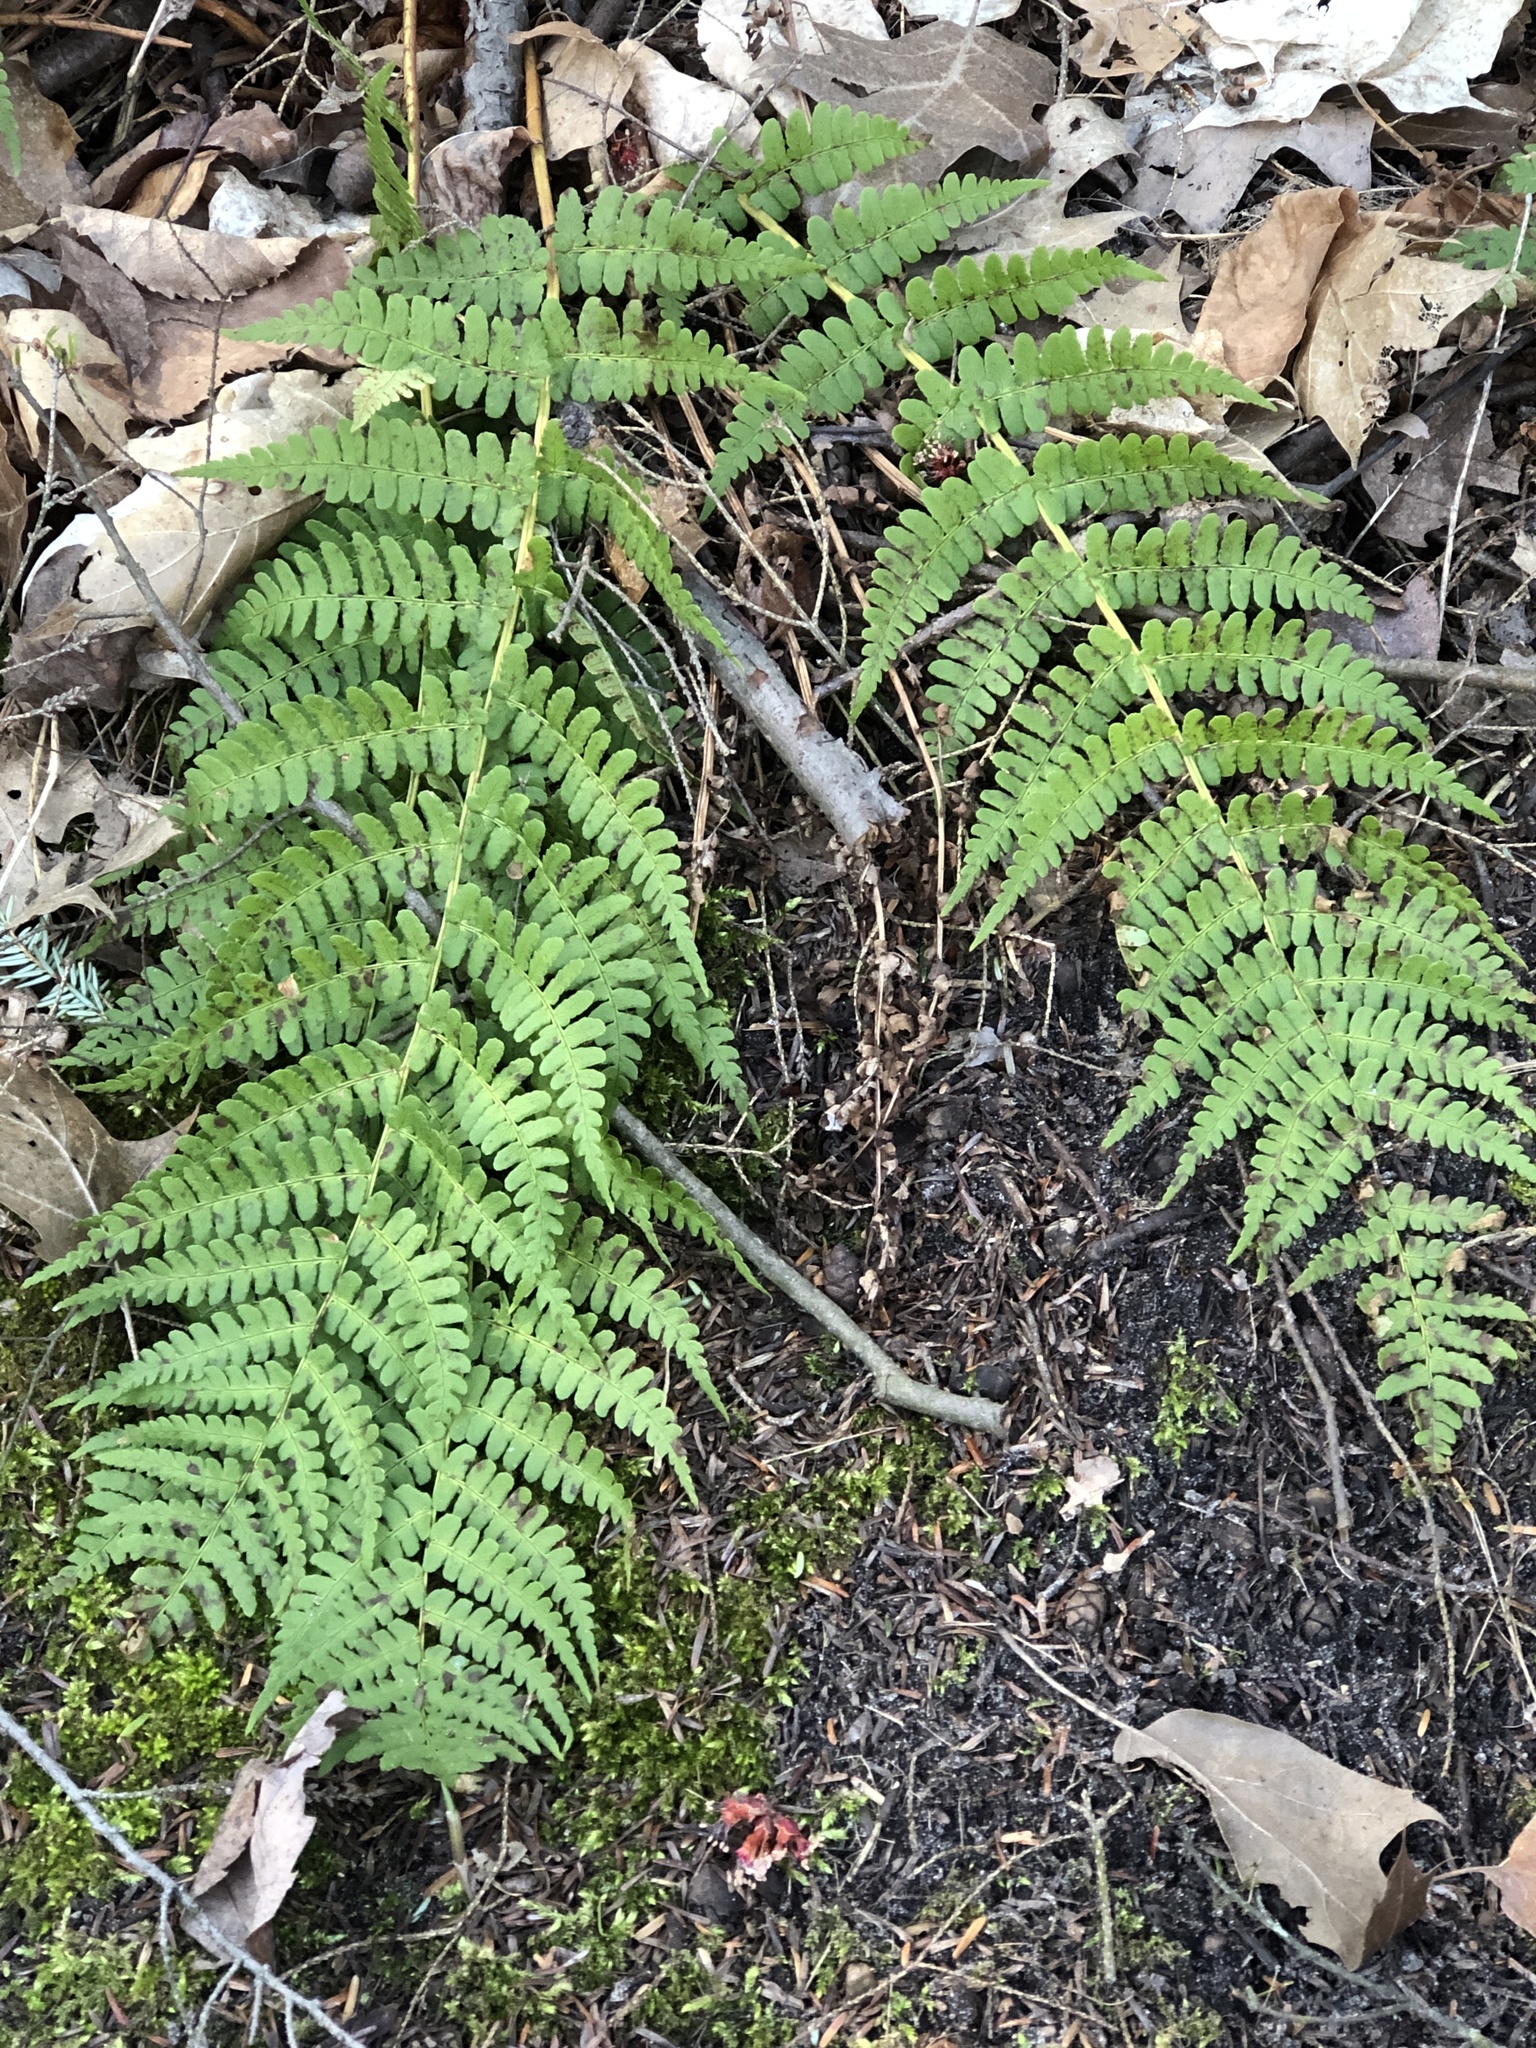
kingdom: Plantae
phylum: Tracheophyta
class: Polypodiopsida
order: Polypodiales
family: Dryopteridaceae
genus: Dryopteris
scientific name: Dryopteris marginalis
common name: Marginal wood fern
